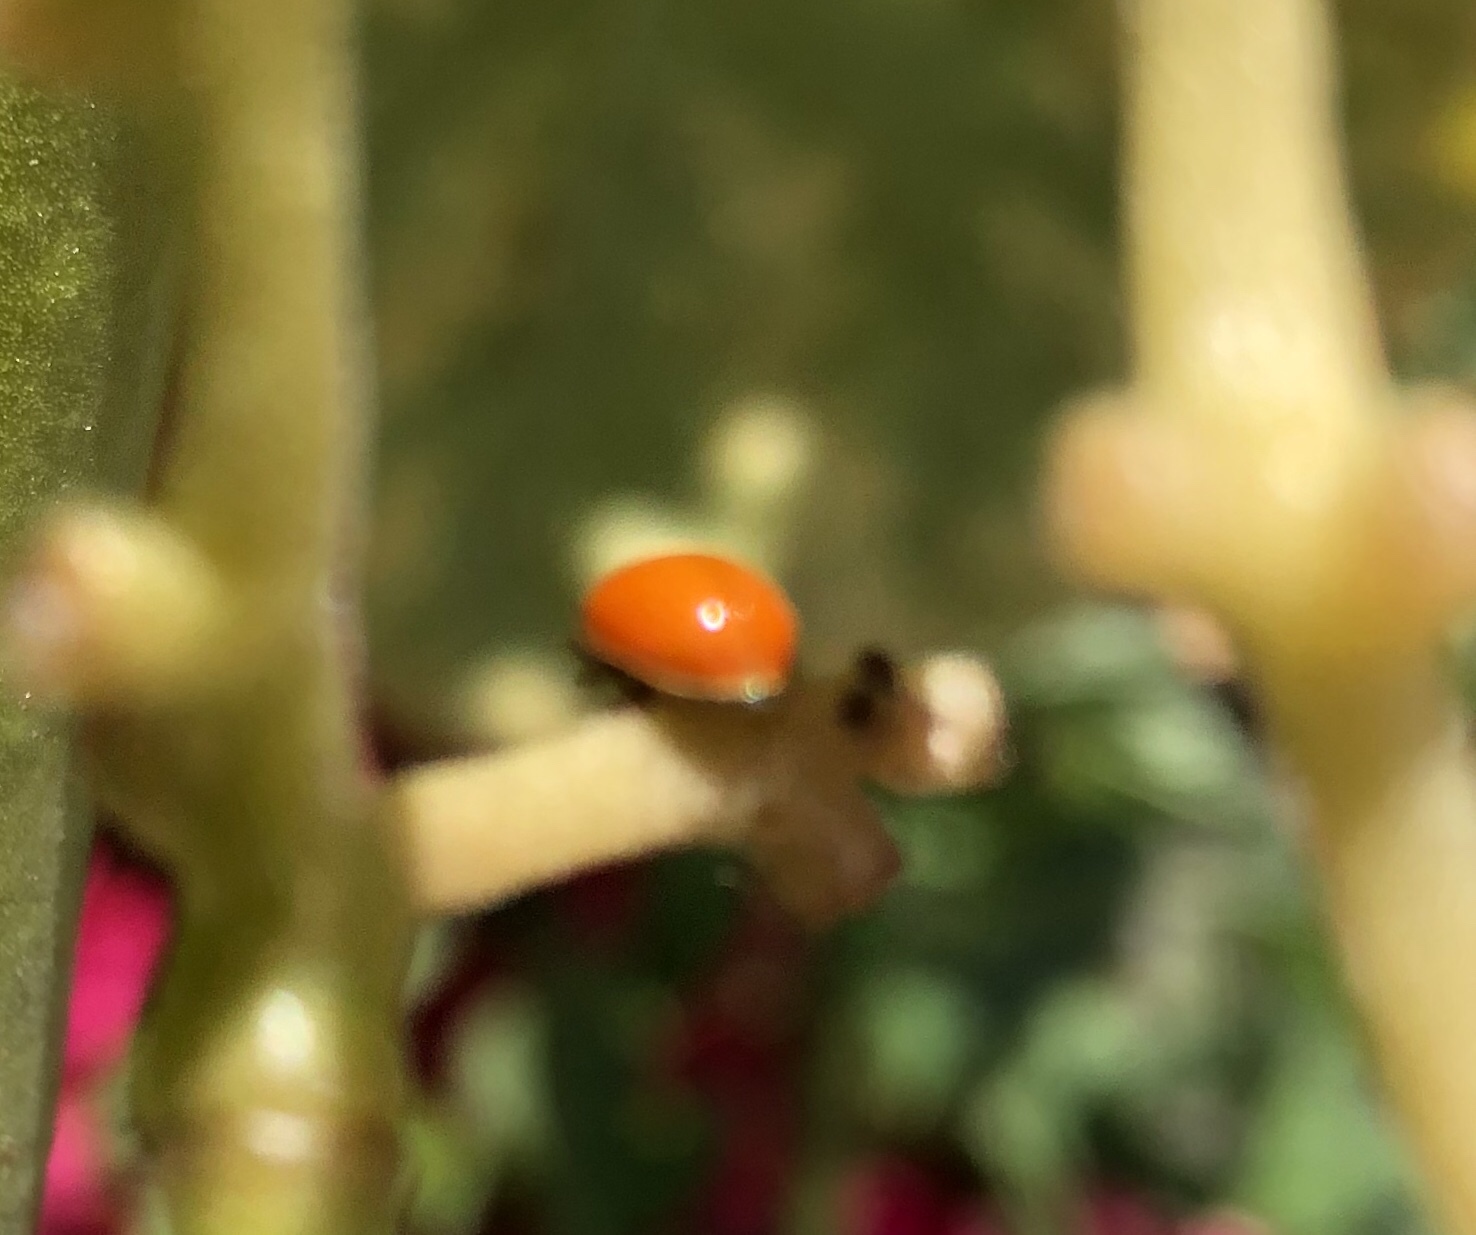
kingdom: Animalia
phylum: Arthropoda
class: Insecta
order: Coleoptera
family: Coccinellidae
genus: Cycloneda
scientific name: Cycloneda polita
